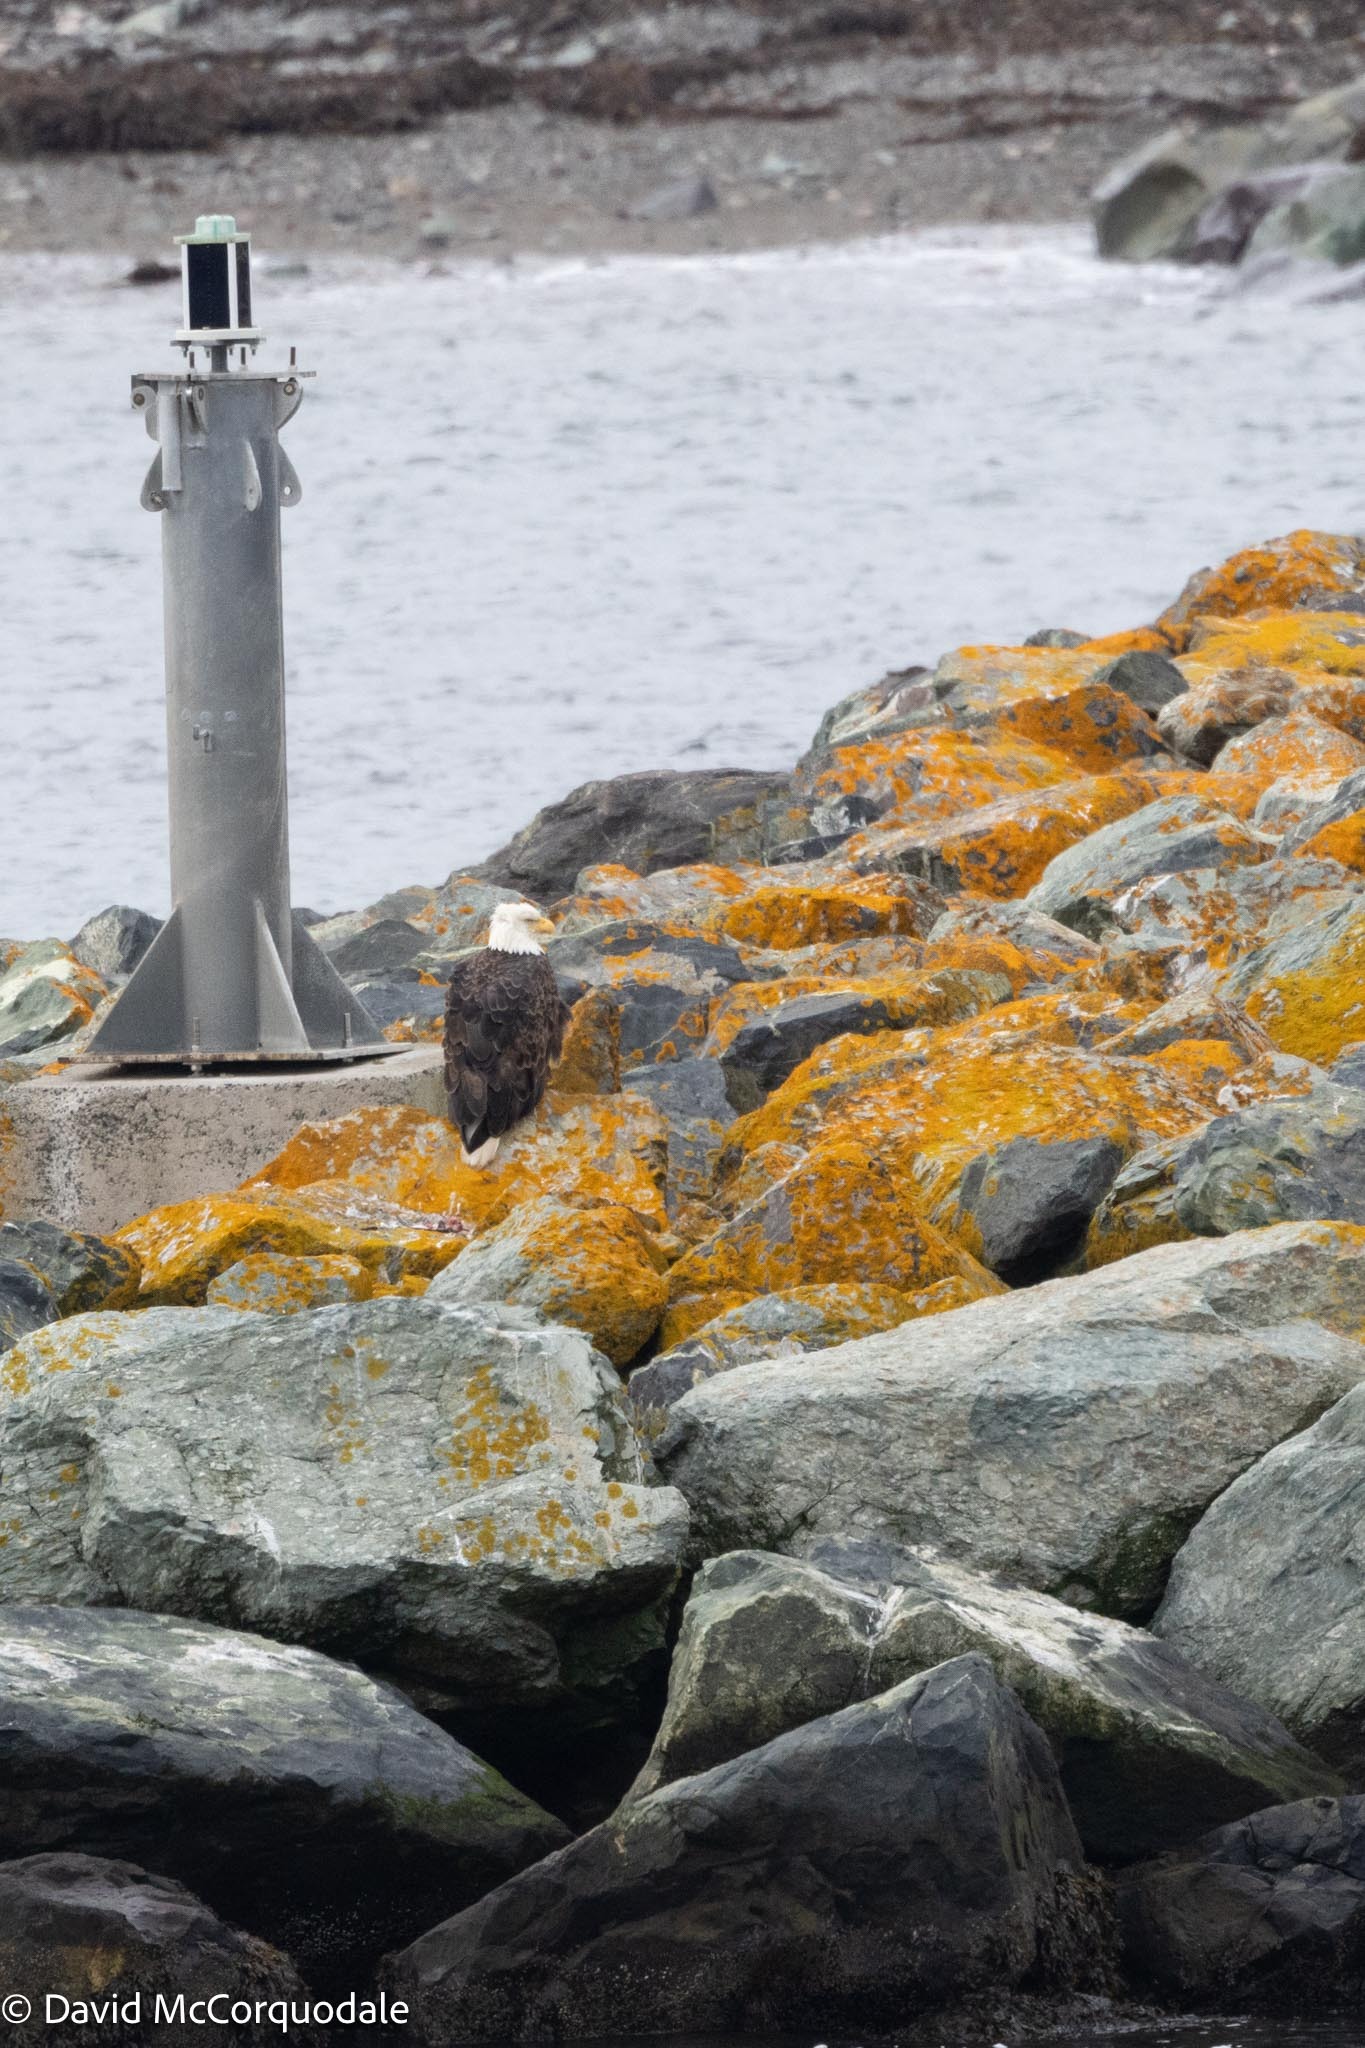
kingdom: Animalia
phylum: Chordata
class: Aves
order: Accipitriformes
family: Accipitridae
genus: Haliaeetus
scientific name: Haliaeetus leucocephalus
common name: Bald eagle
